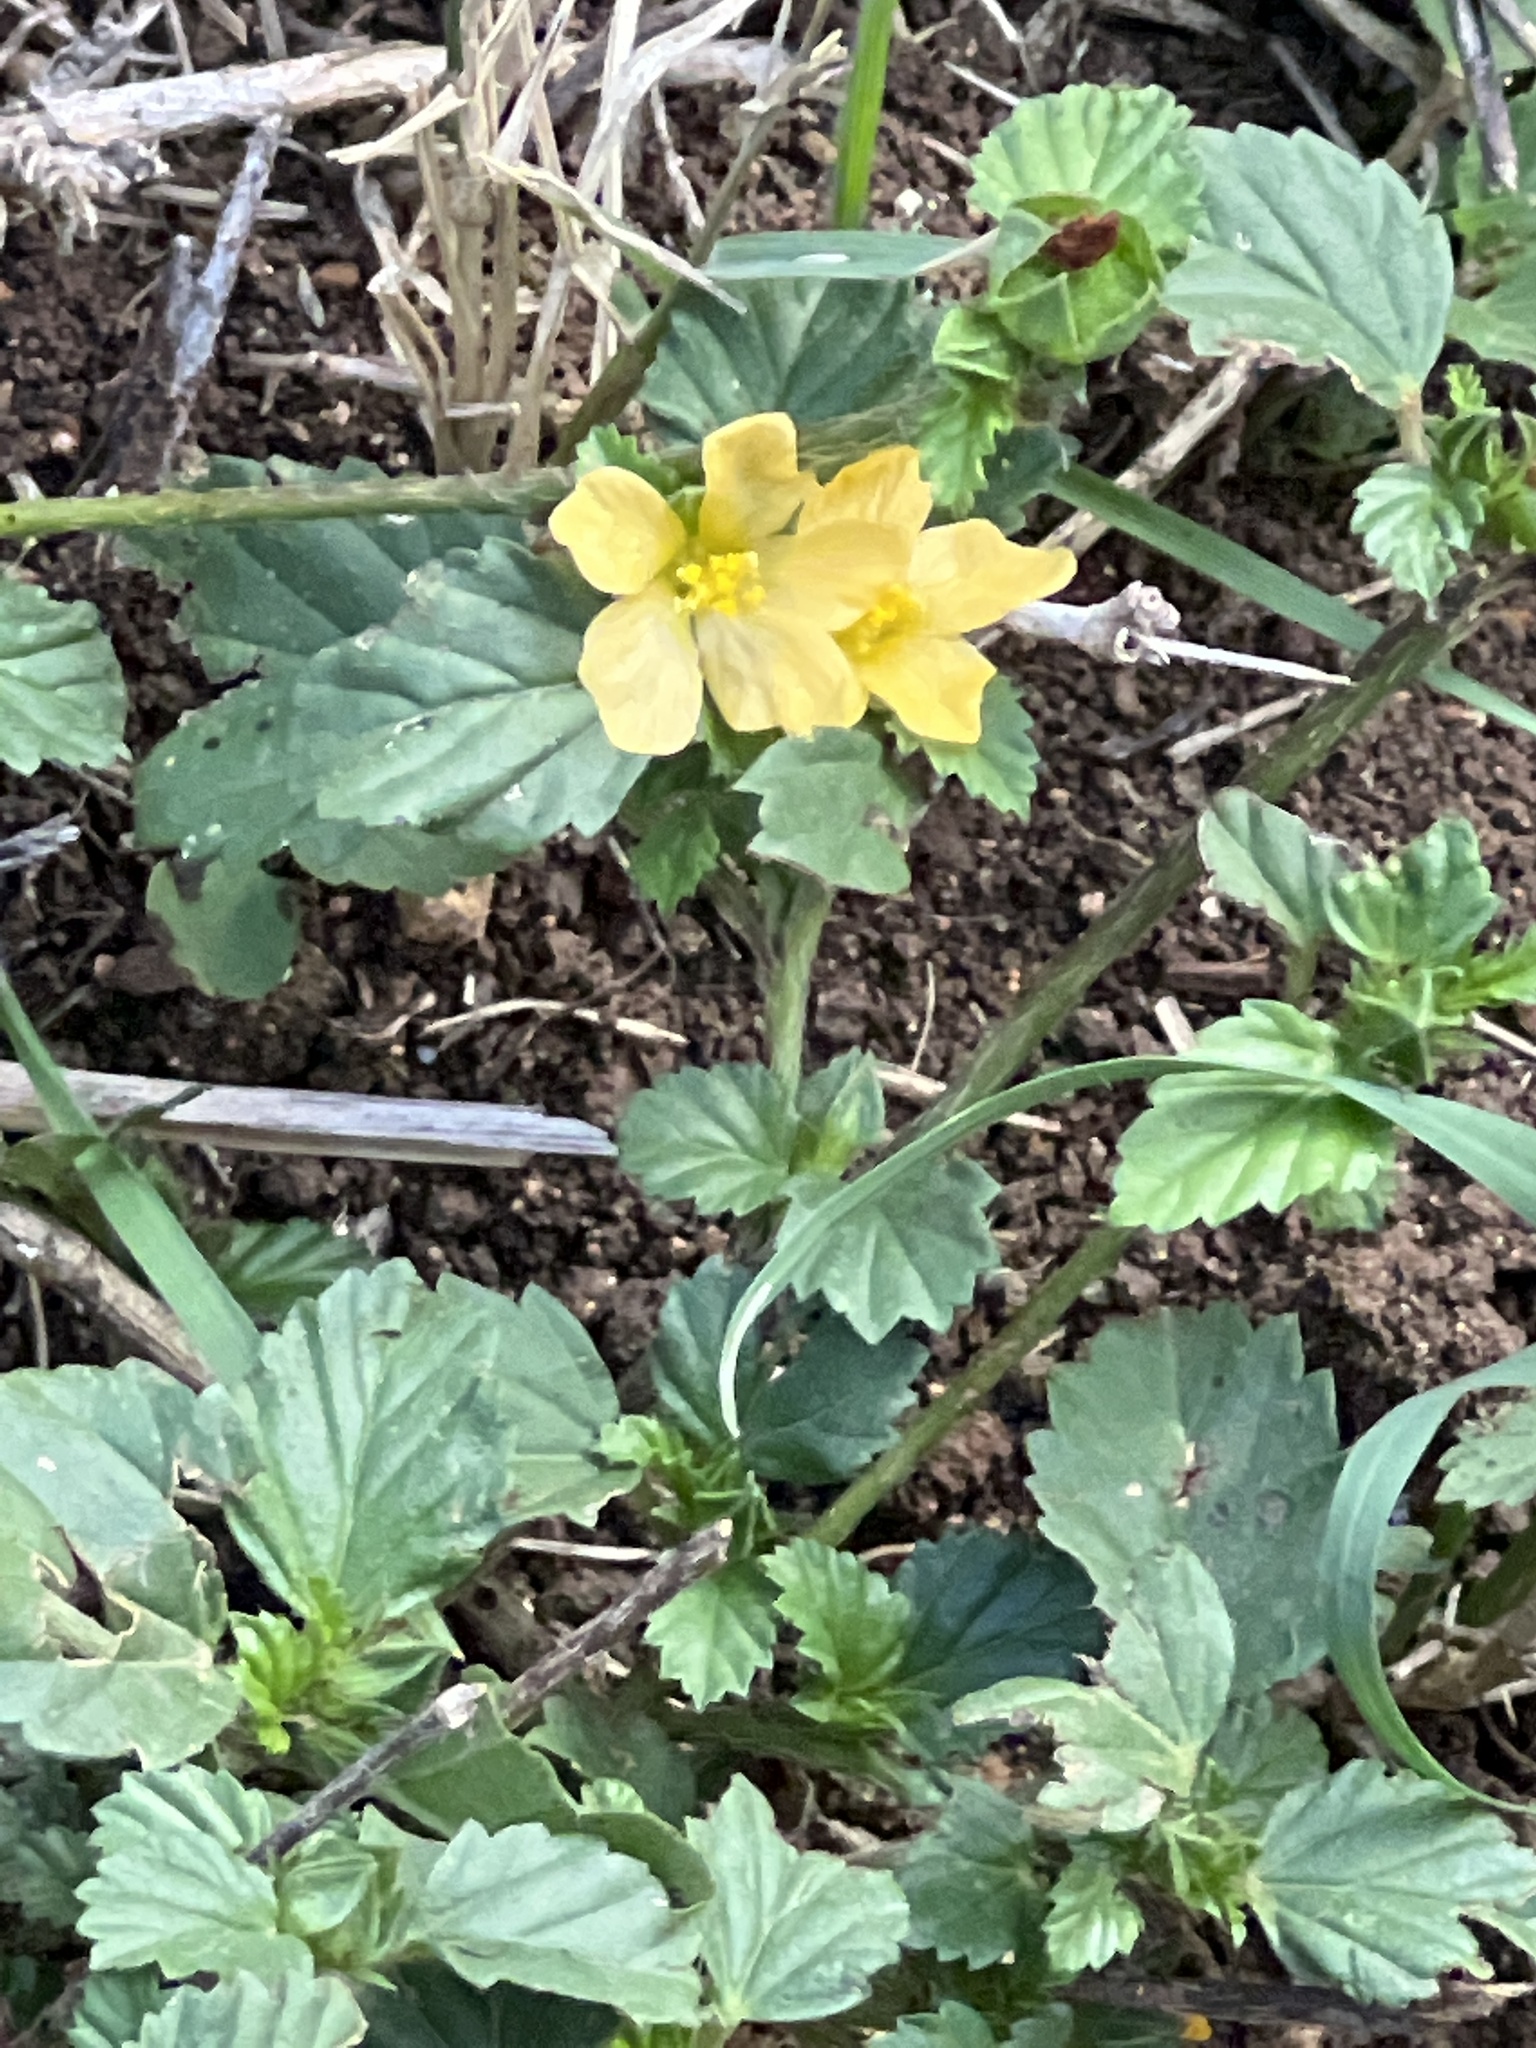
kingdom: Plantae
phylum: Tracheophyta
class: Magnoliopsida
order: Malvales
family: Malvaceae
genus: Malvastrum
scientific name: Malvastrum coromandelianum
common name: Threelobe false mallow
